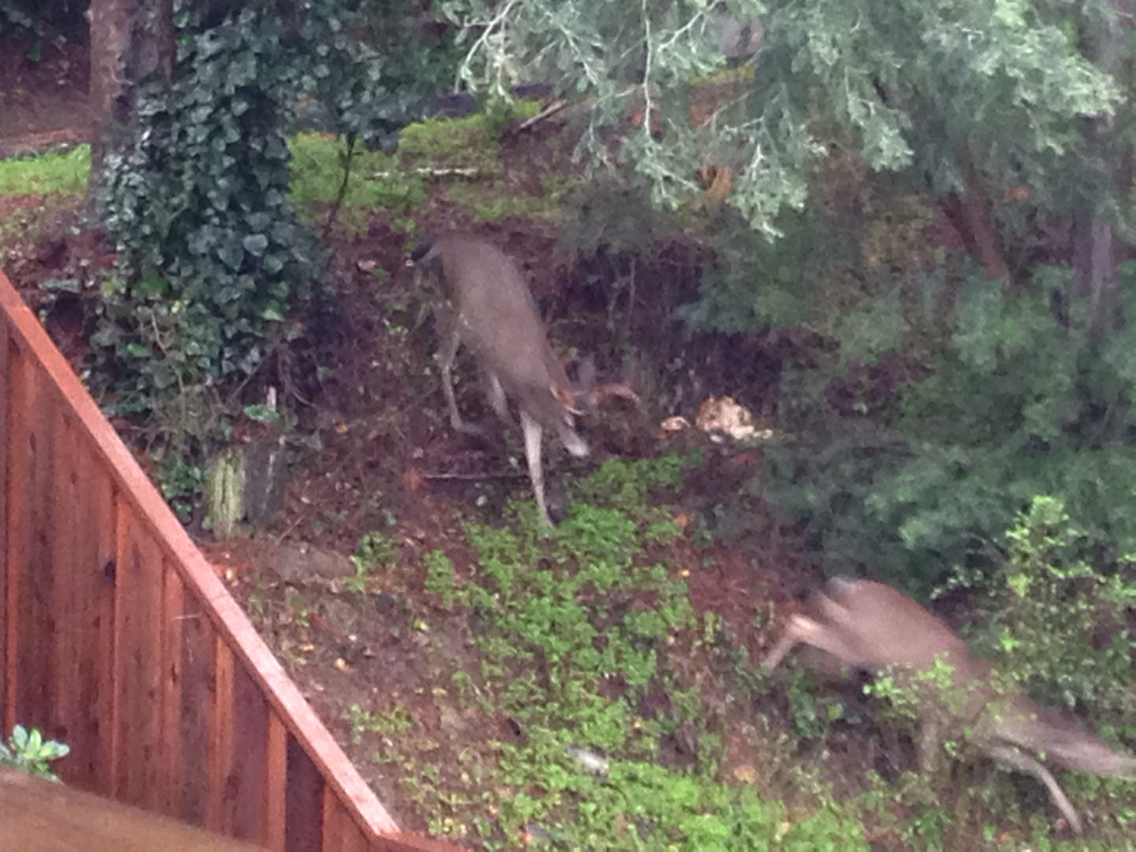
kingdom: Animalia
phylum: Chordata
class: Mammalia
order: Artiodactyla
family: Cervidae
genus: Odocoileus
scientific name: Odocoileus hemionus
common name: Mule deer
